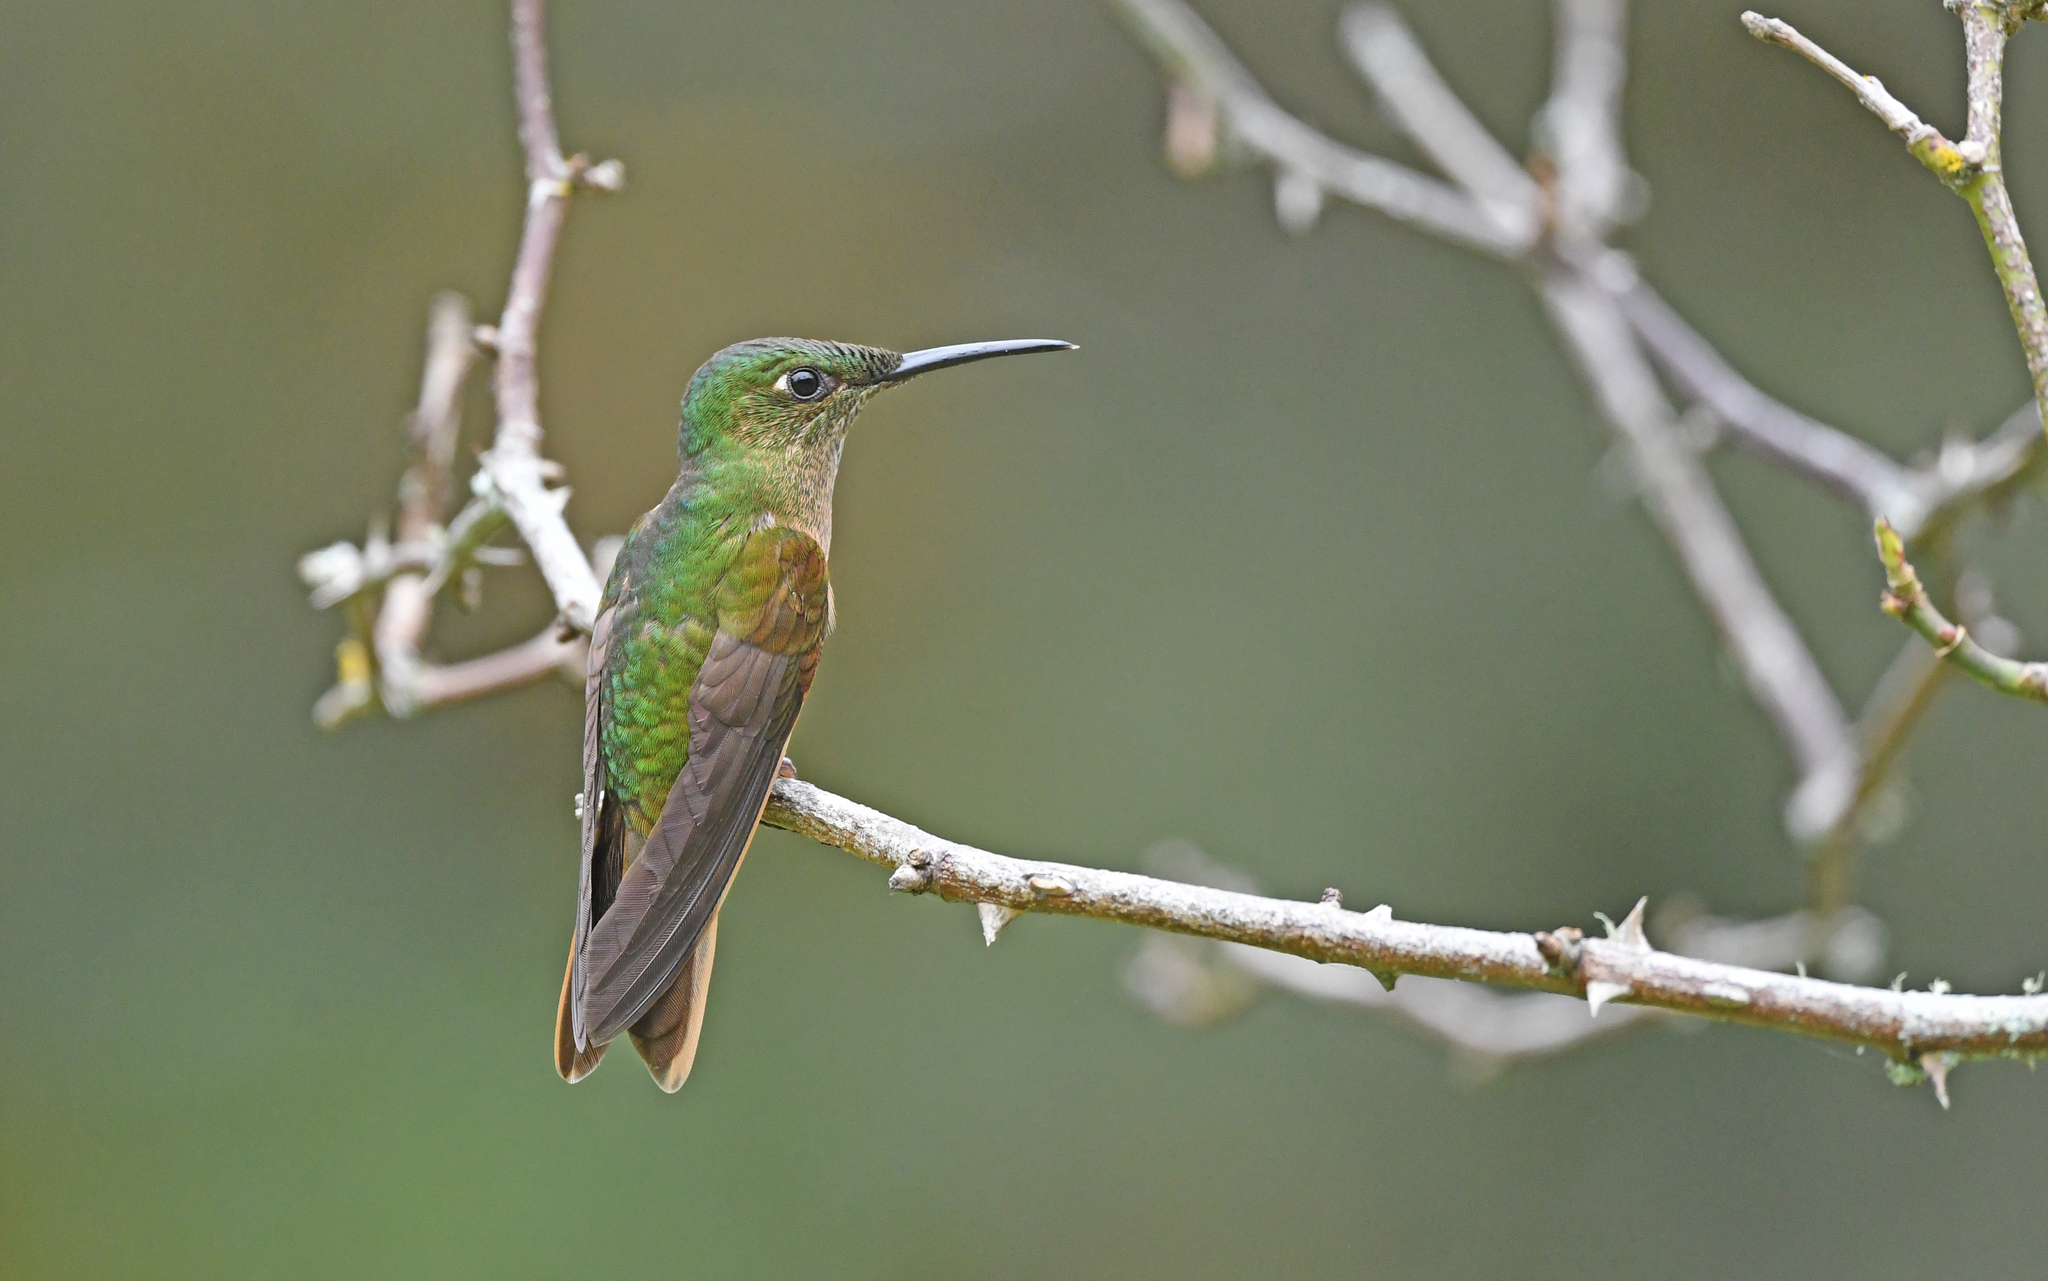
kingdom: Animalia
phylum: Chordata
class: Aves
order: Apodiformes
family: Trochilidae
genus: Heliodoxa
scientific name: Heliodoxa rubinoides
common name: Fawn-breasted brilliant
